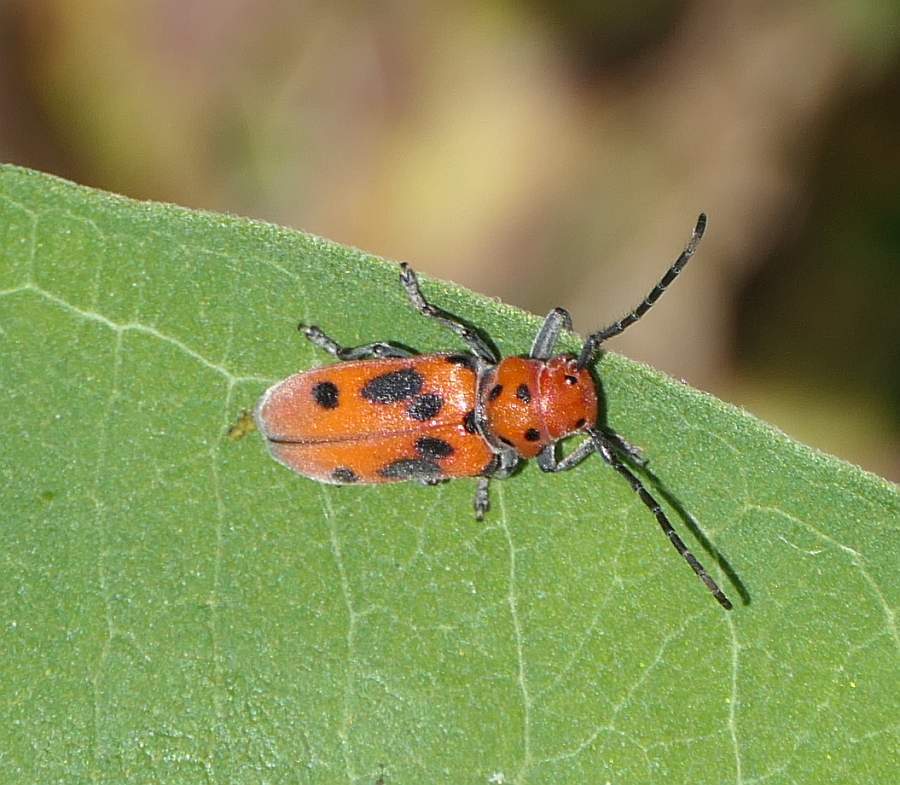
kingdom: Animalia
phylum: Arthropoda
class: Insecta
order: Coleoptera
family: Cerambycidae
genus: Tetraopes
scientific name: Tetraopes tetrophthalmus
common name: Red milkweed beetle
